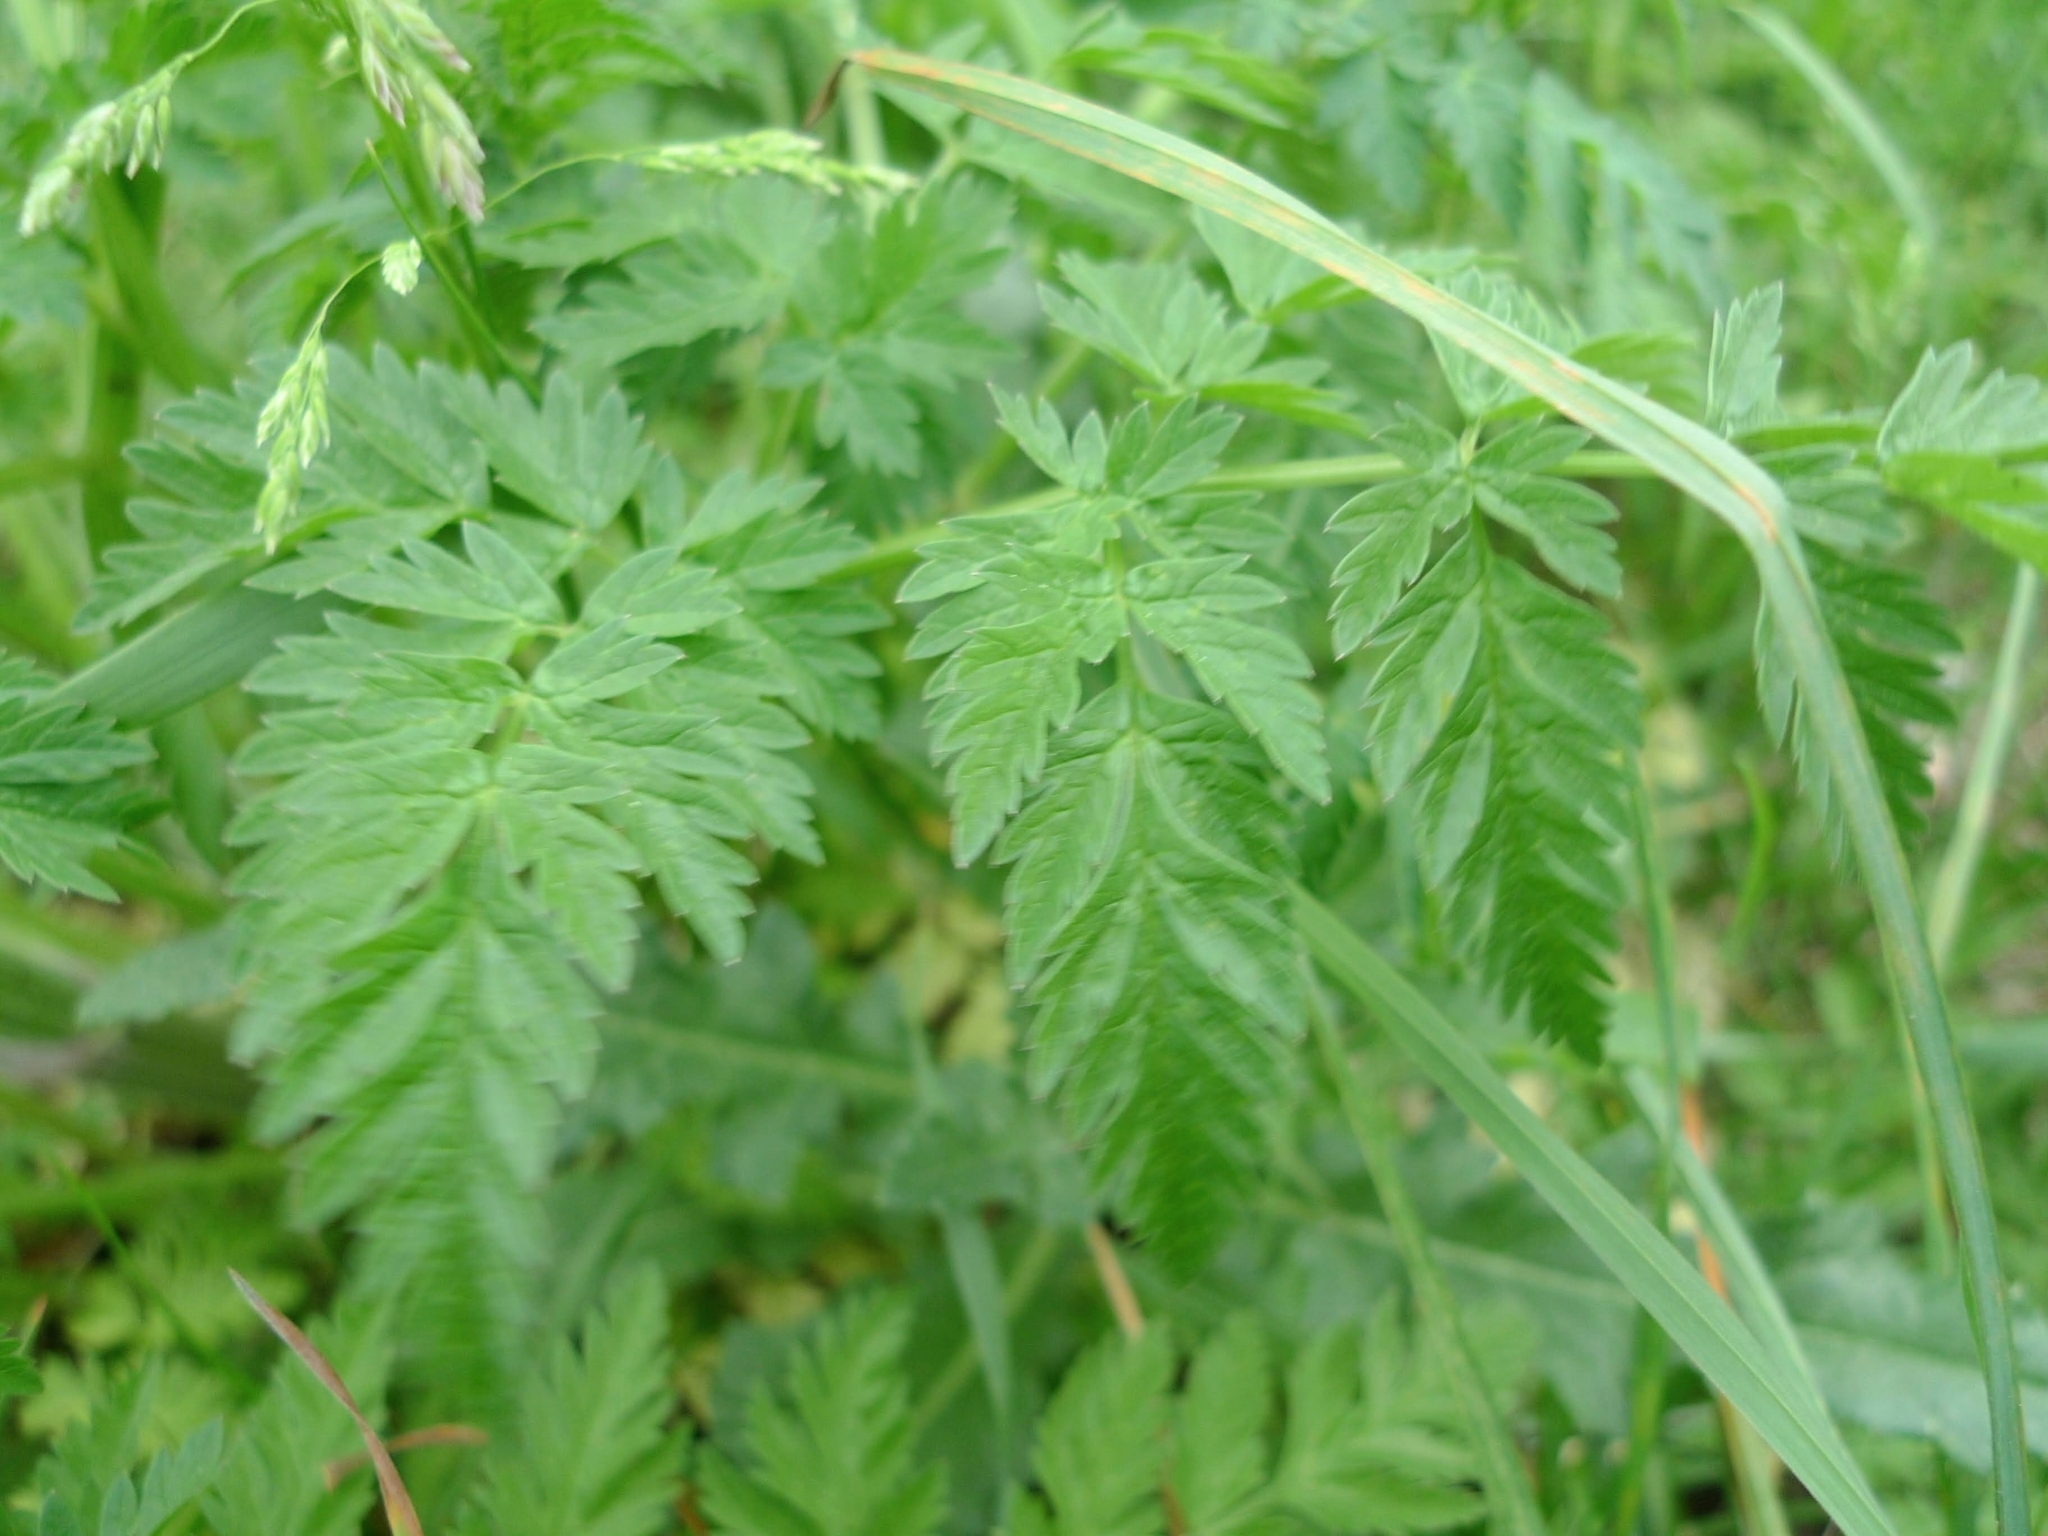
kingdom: Plantae
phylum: Tracheophyta
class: Magnoliopsida
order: Apiales
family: Apiaceae
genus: Anthriscus
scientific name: Anthriscus sylvestris
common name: Cow parsley
